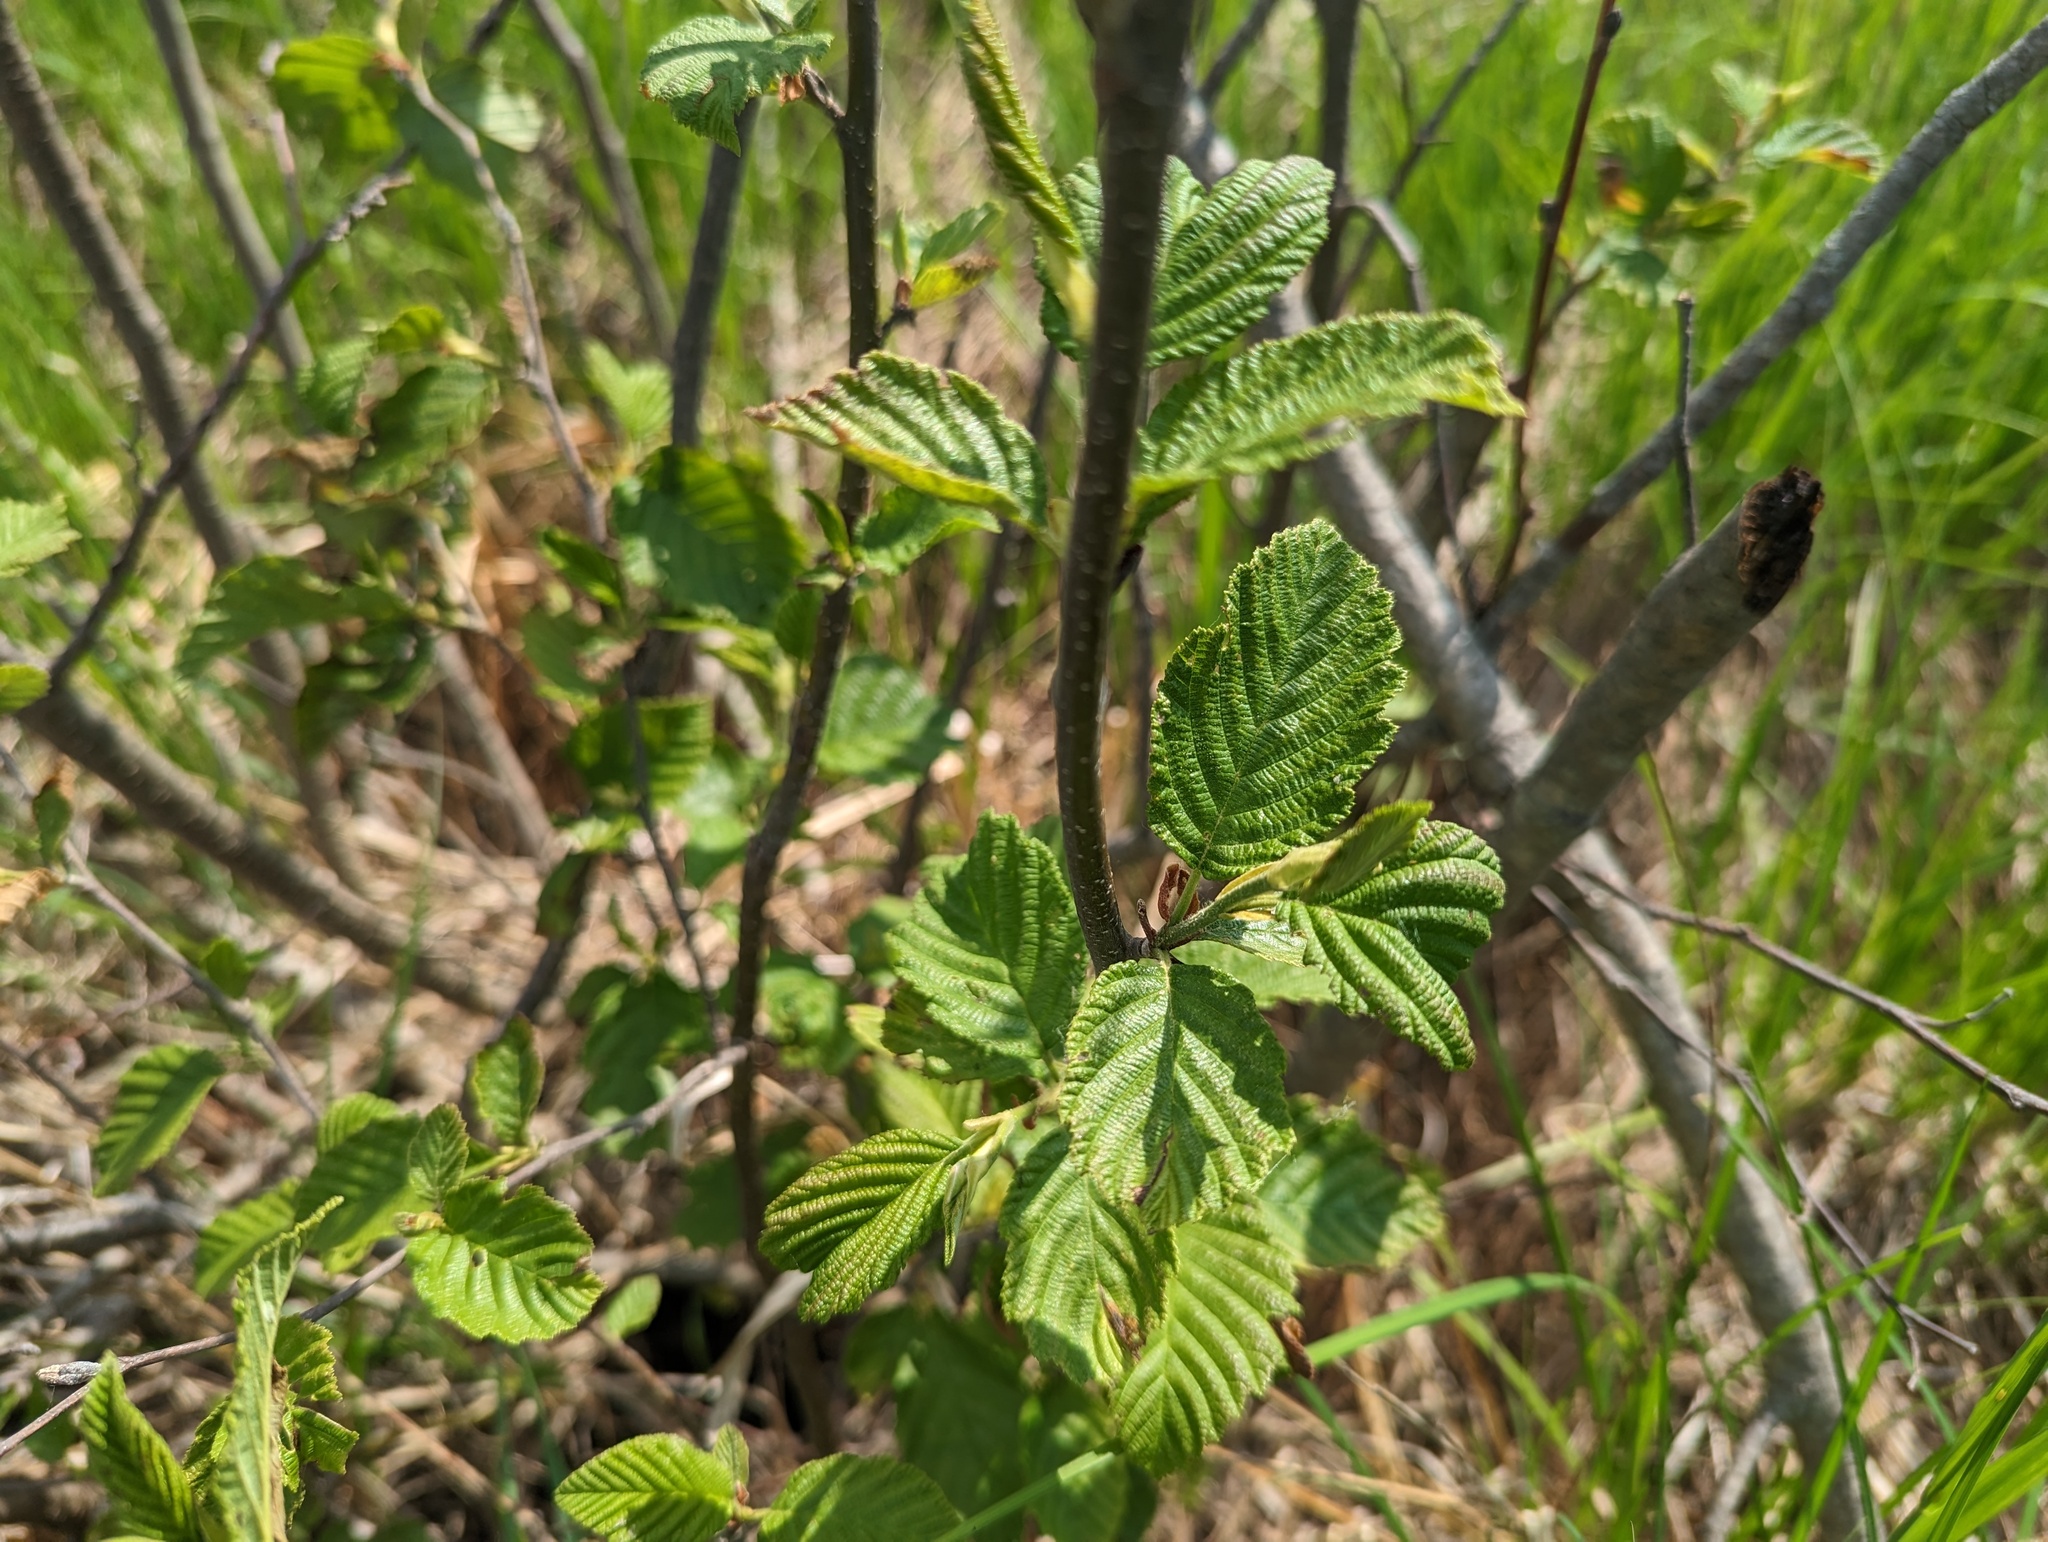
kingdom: Plantae
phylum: Tracheophyta
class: Magnoliopsida
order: Fagales
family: Betulaceae
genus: Alnus
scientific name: Alnus incana
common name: Grey alder
